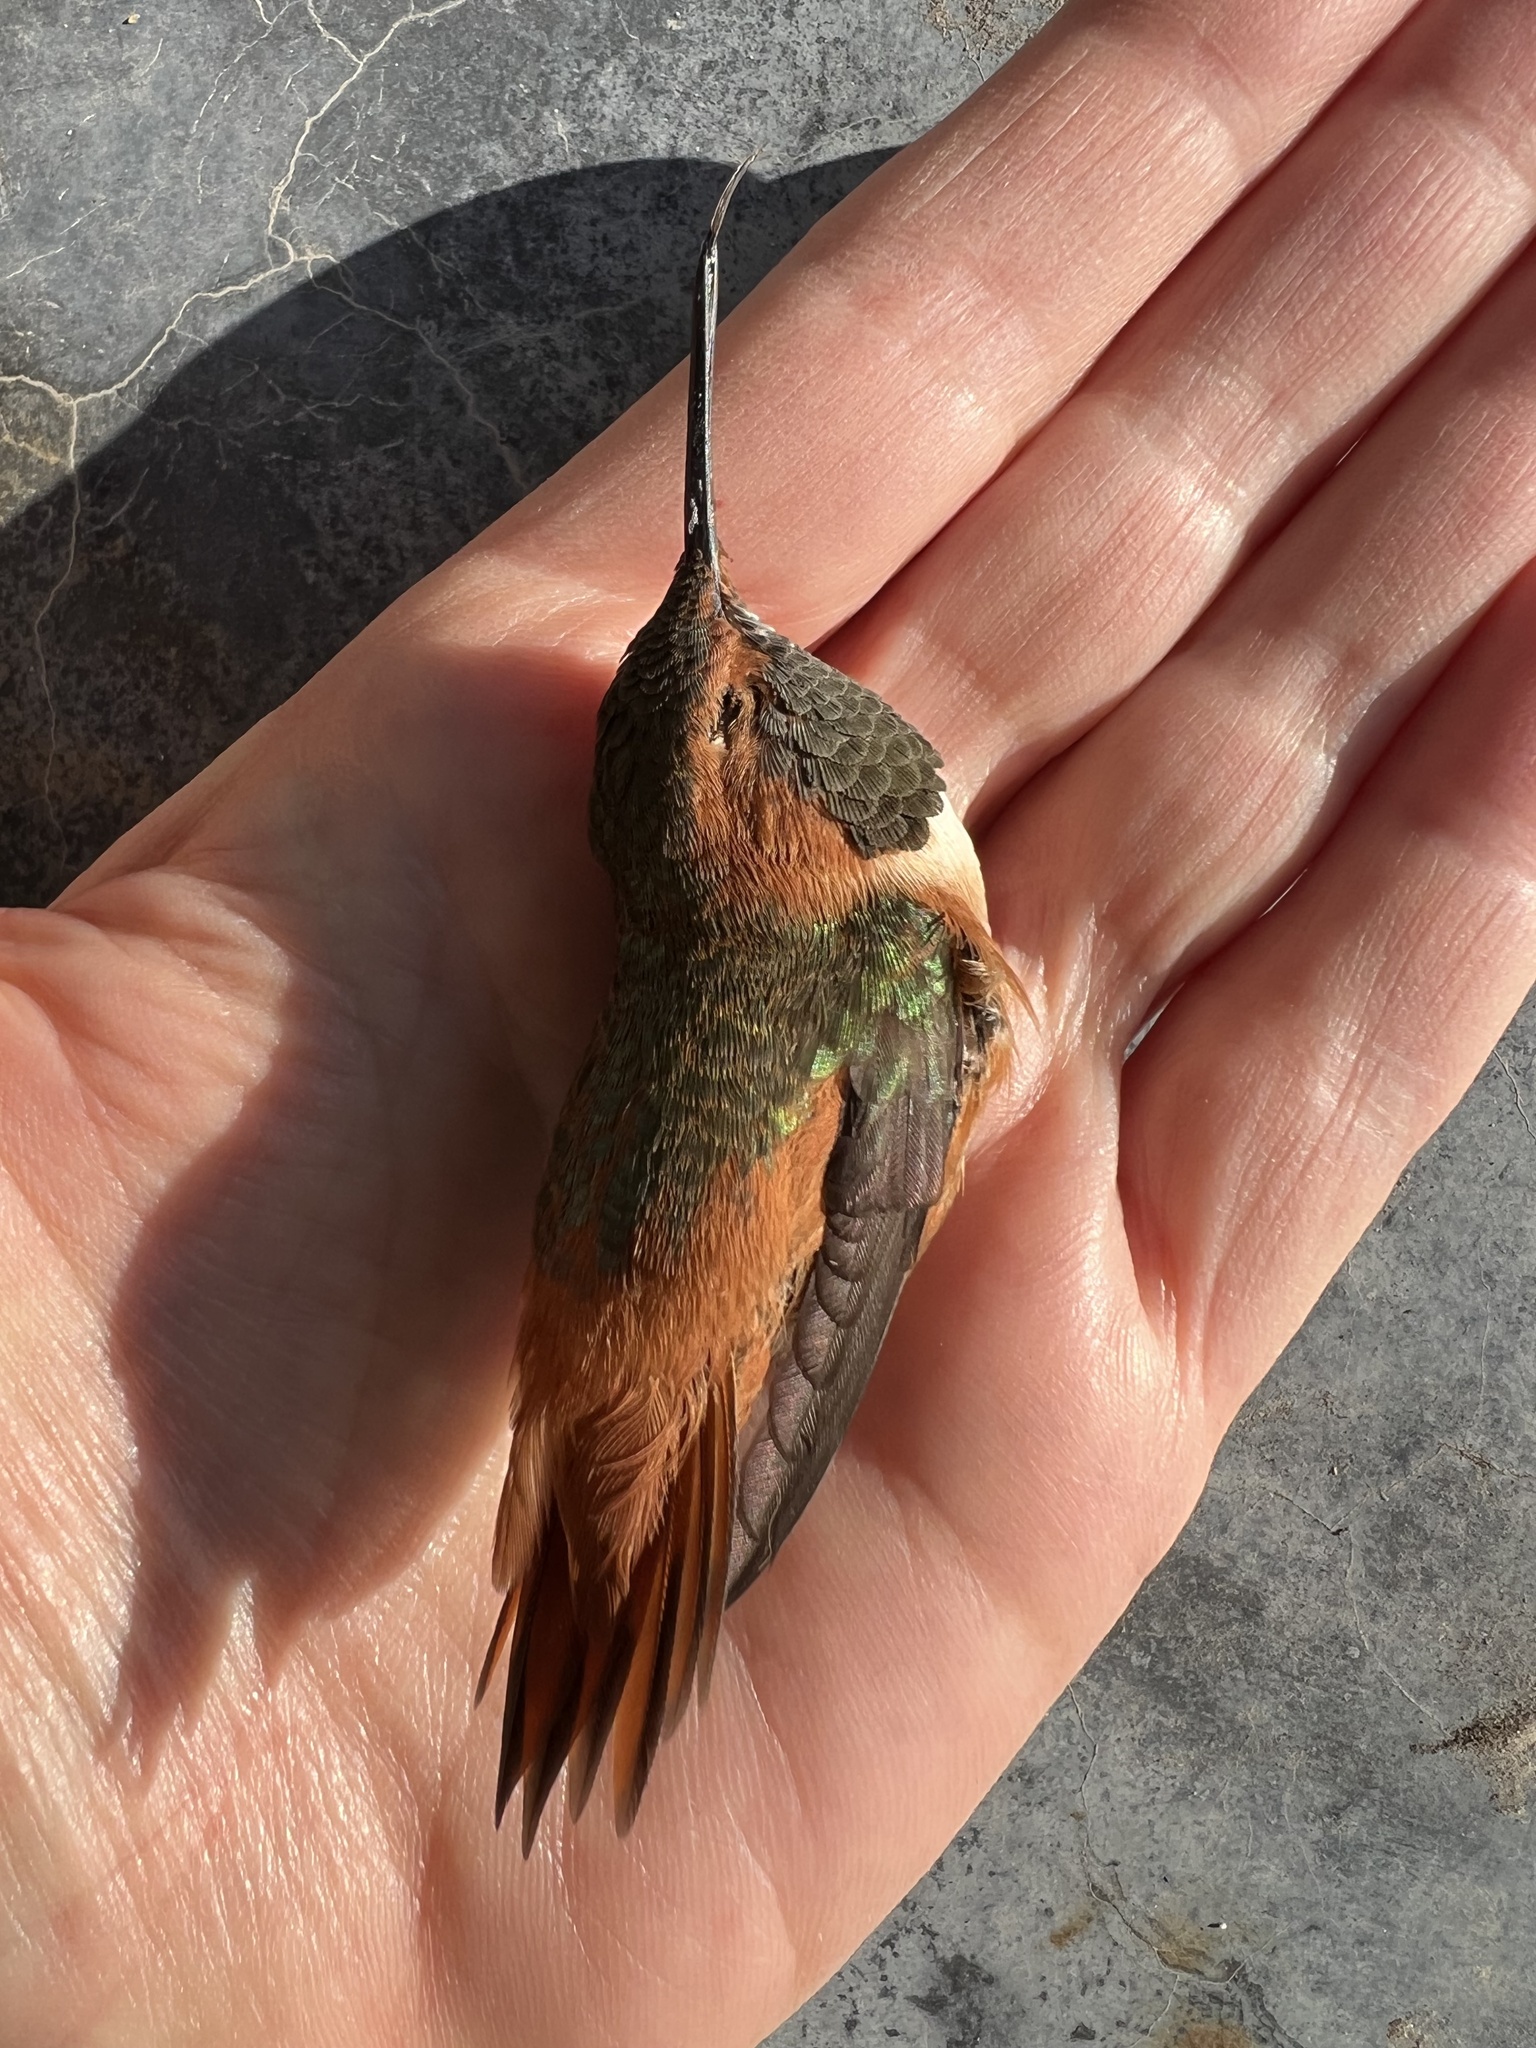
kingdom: Animalia
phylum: Chordata
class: Aves
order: Apodiformes
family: Trochilidae
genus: Selasphorus
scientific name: Selasphorus sasin
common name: Allen's hummingbird
